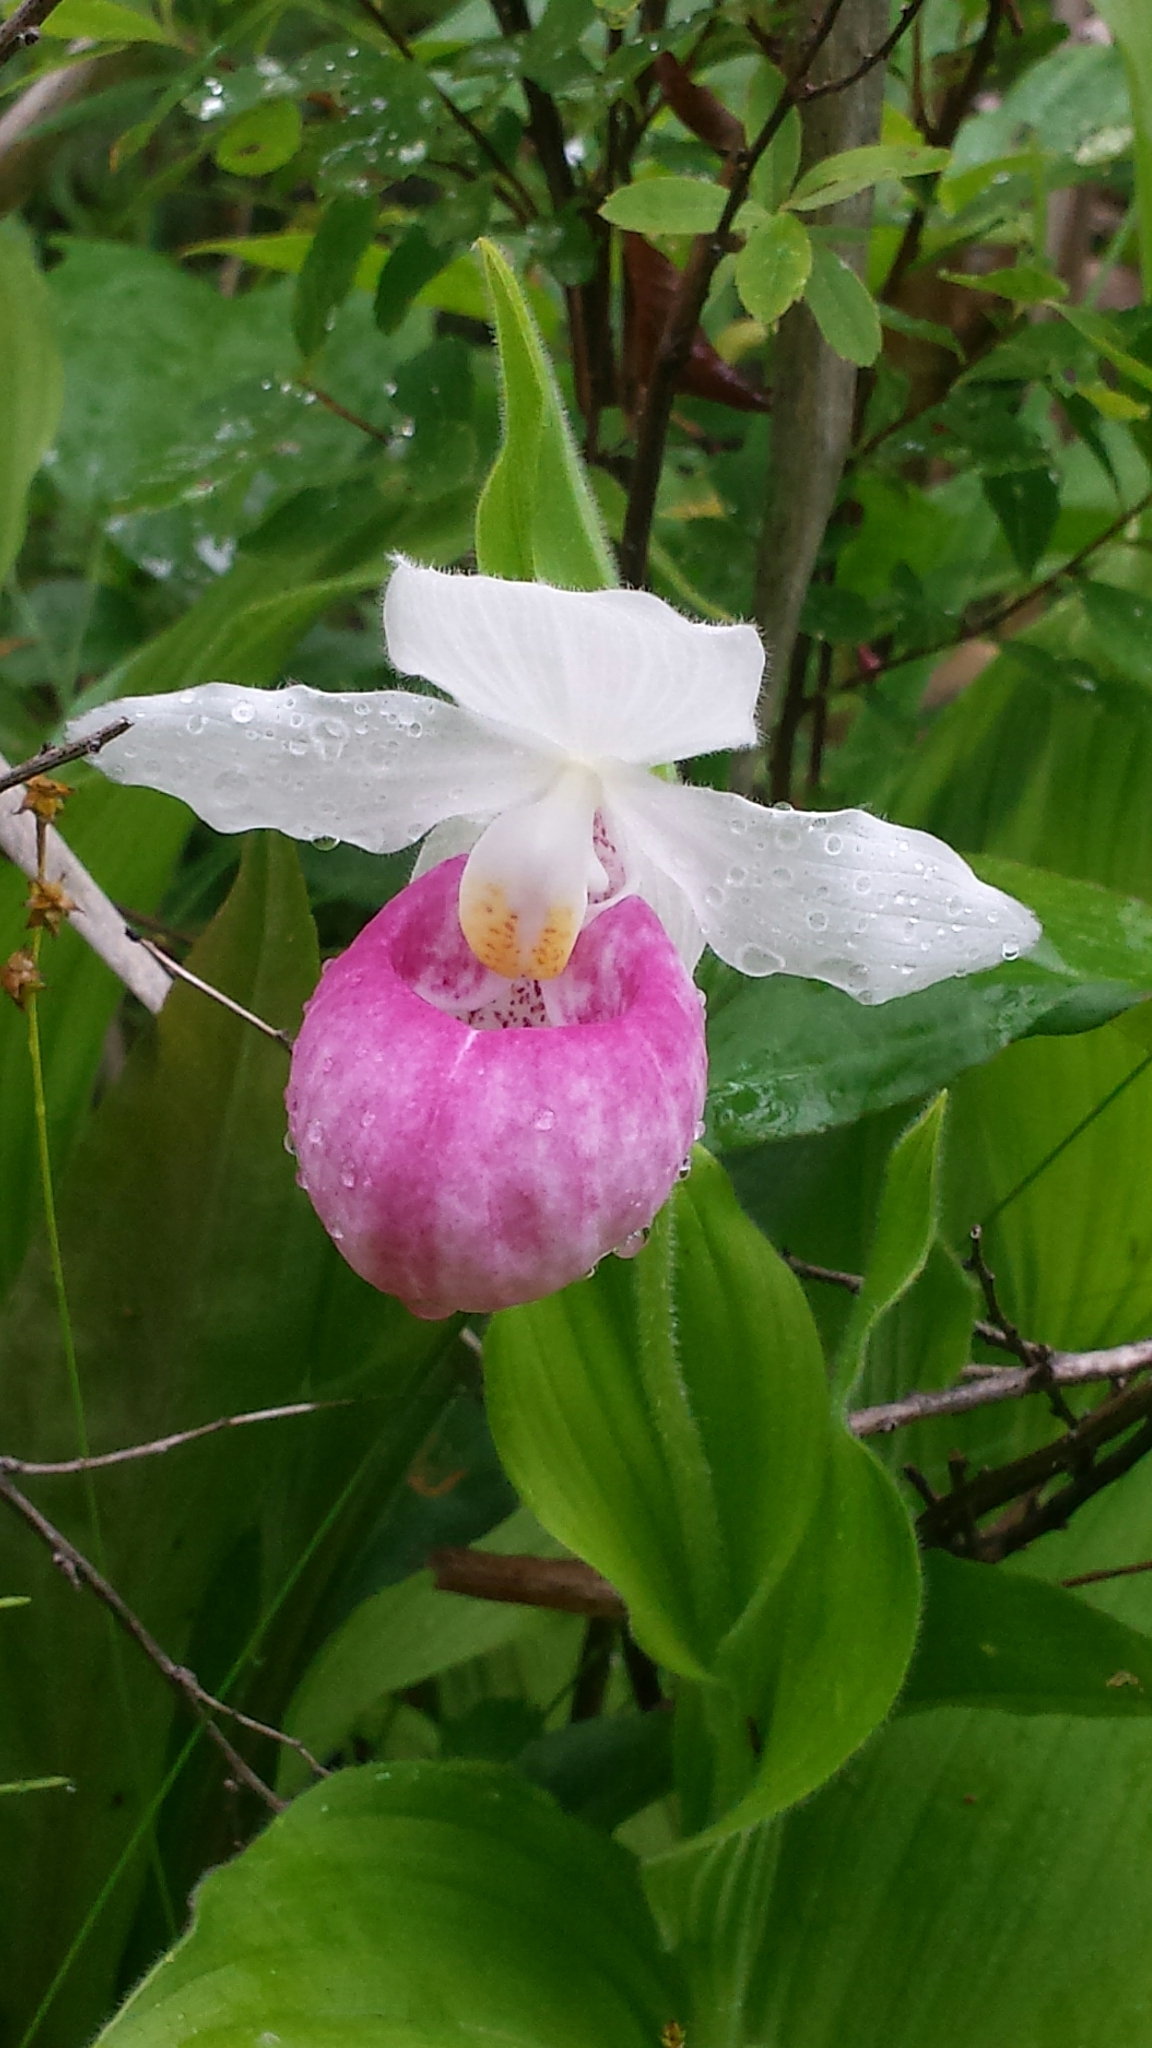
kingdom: Plantae
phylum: Tracheophyta
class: Liliopsida
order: Asparagales
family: Orchidaceae
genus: Cypripedium
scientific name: Cypripedium reginae
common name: Queen lady's-slipper
